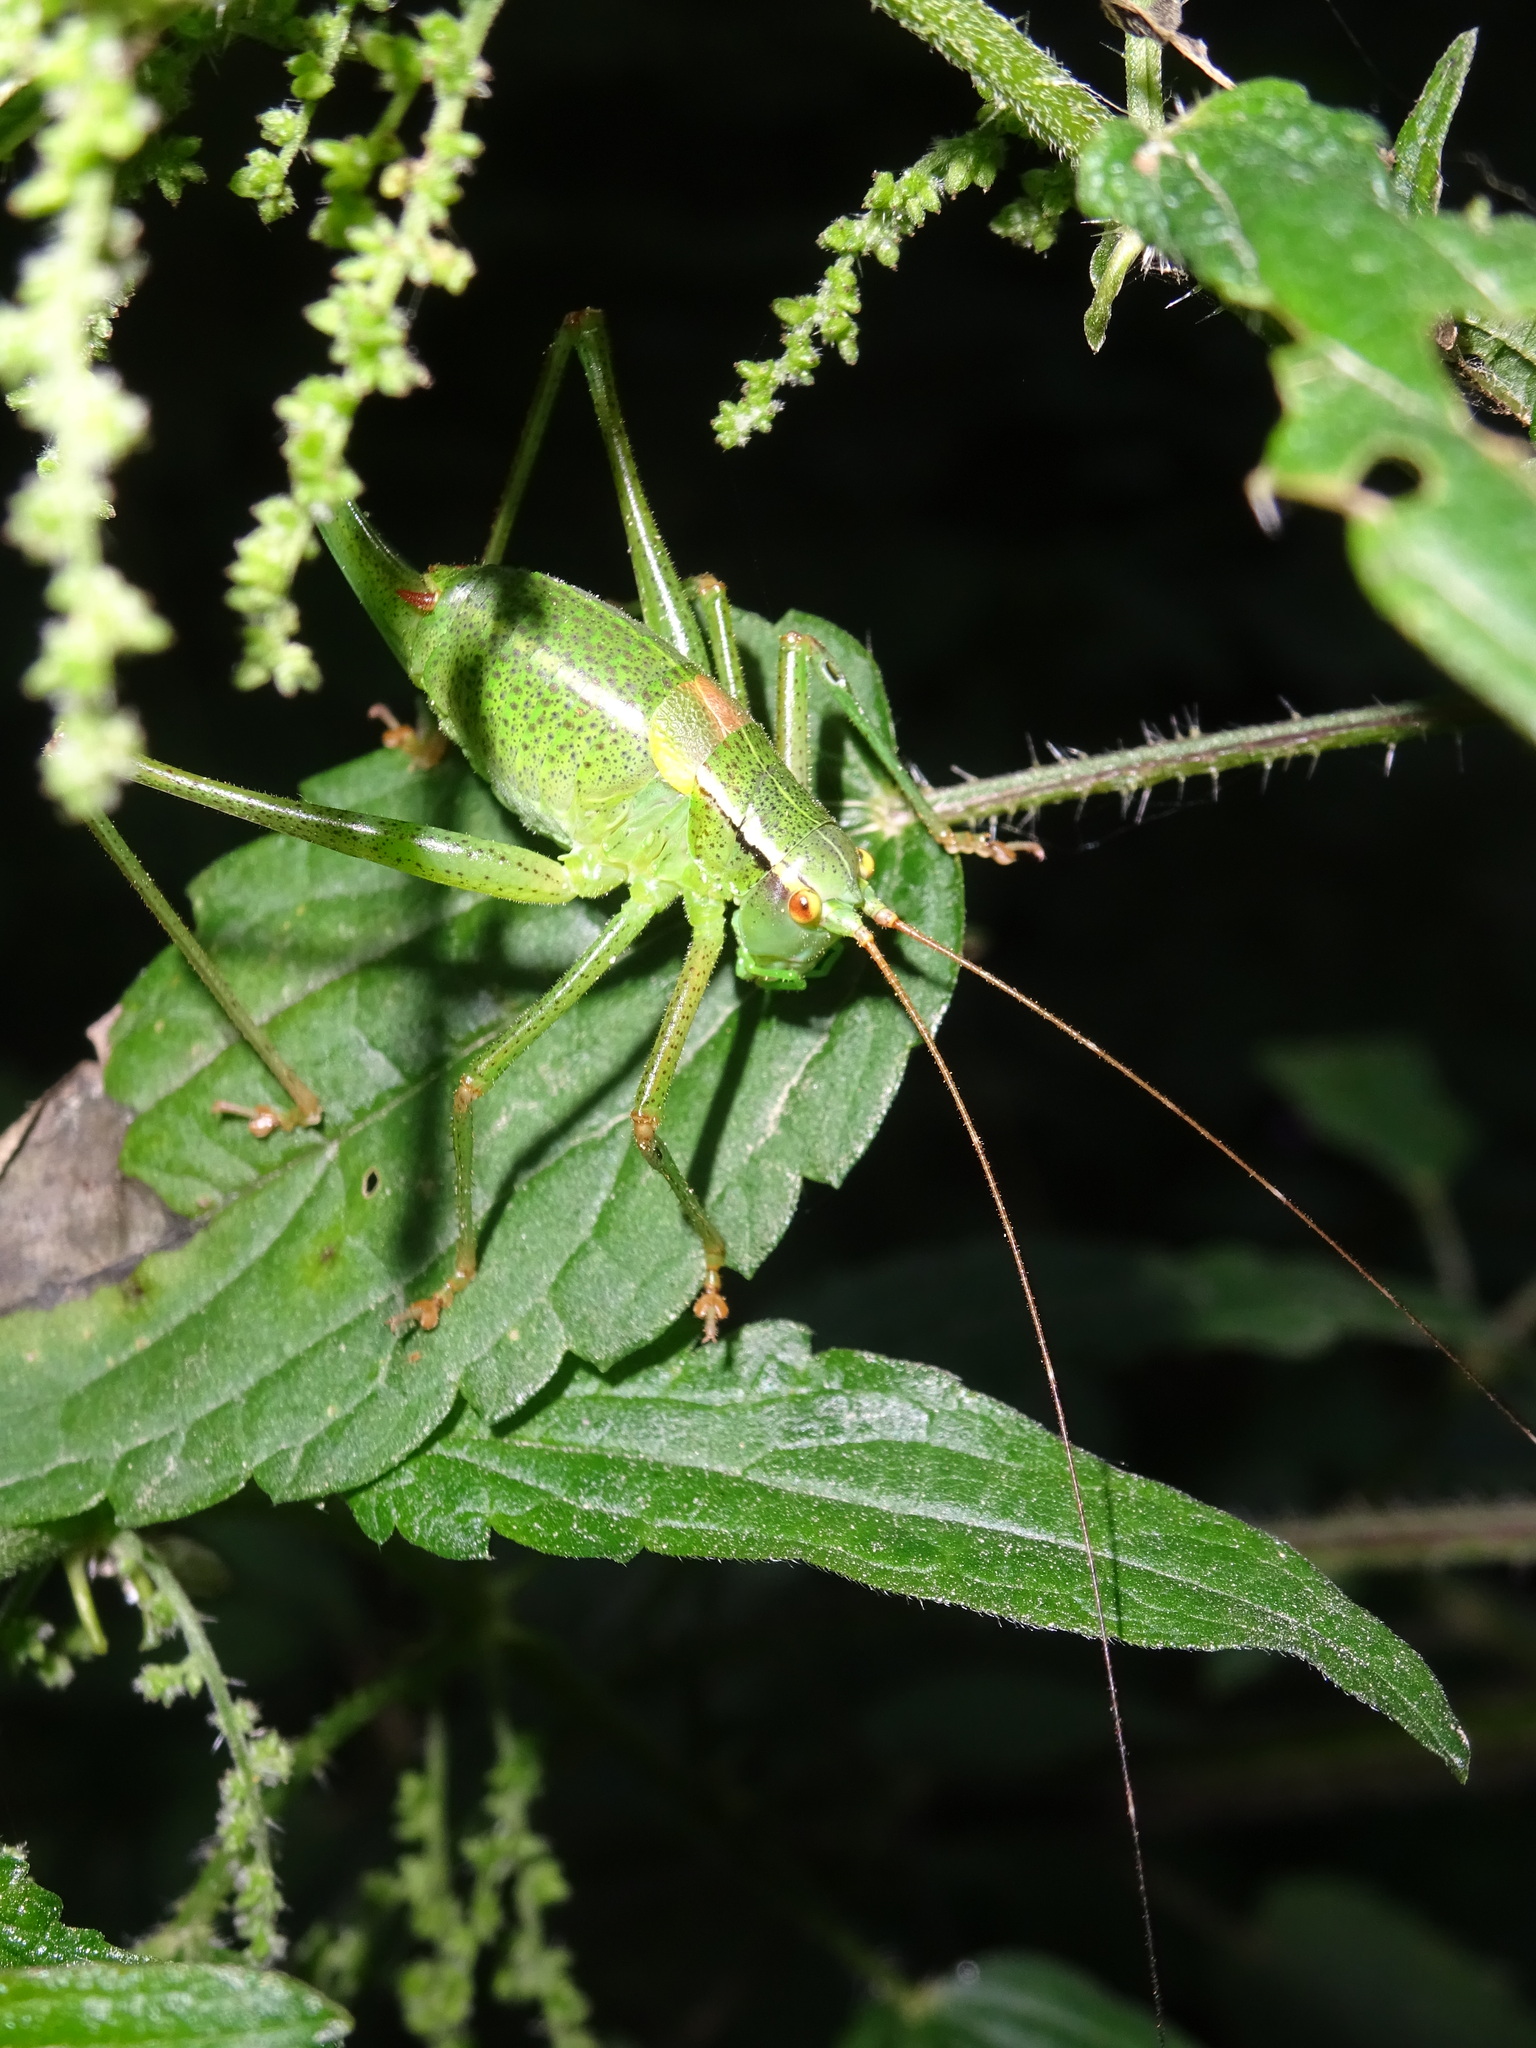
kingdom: Animalia
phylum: Arthropoda
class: Insecta
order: Orthoptera
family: Tettigoniidae
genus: Barbitistes
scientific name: Barbitistes constrictus
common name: Eastern saw-tailed bush cricket
